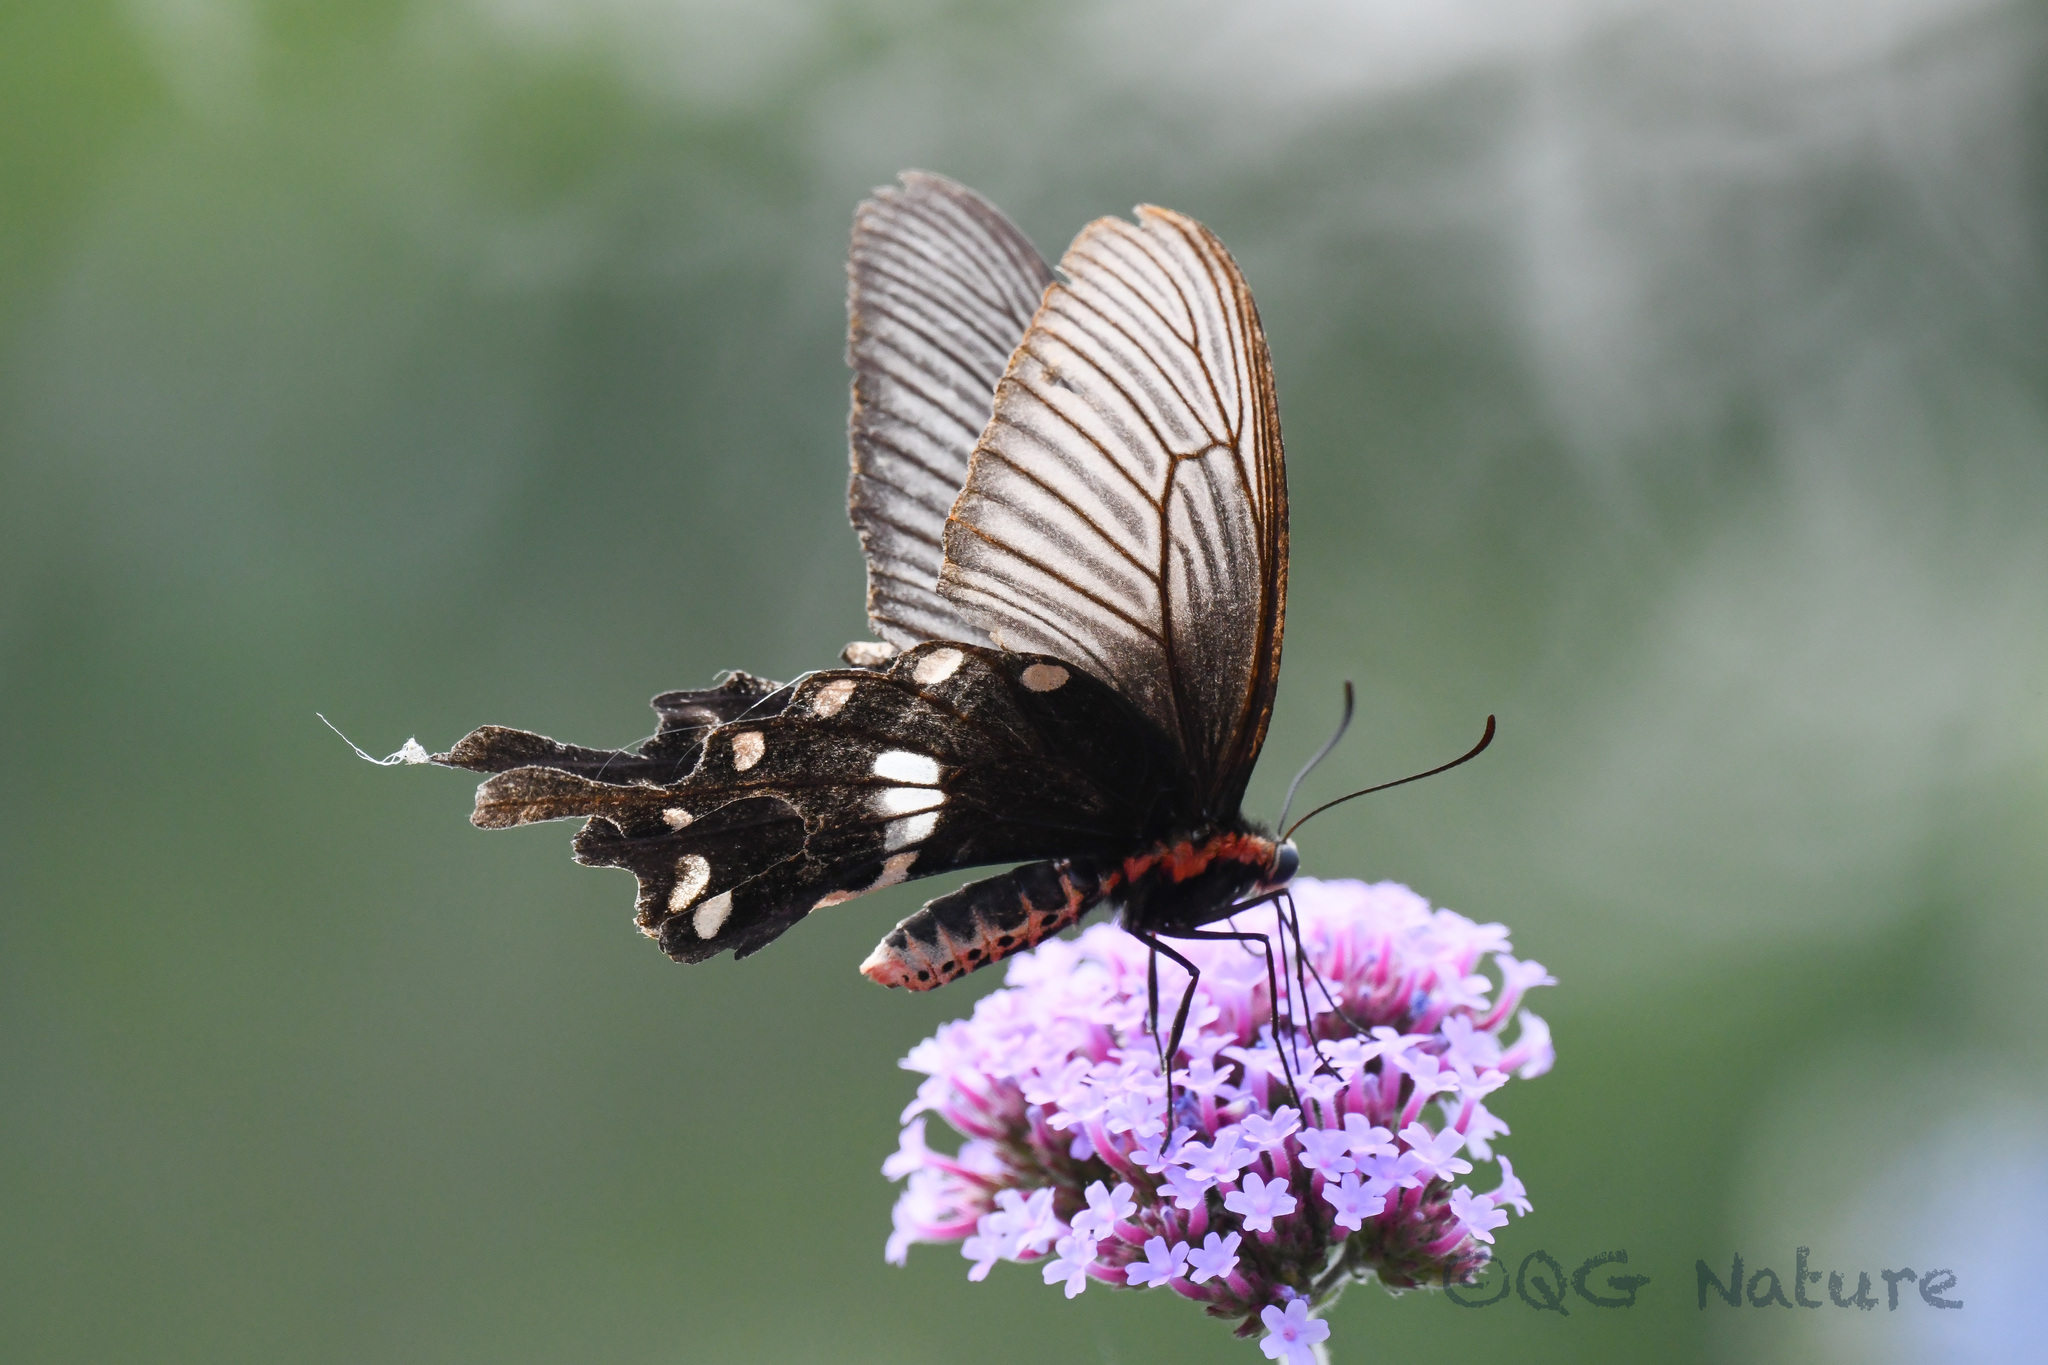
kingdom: Animalia
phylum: Arthropoda
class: Insecta
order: Lepidoptera
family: Papilionidae
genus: Pachliopta
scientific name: Pachliopta aristolochiae
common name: Common rose
